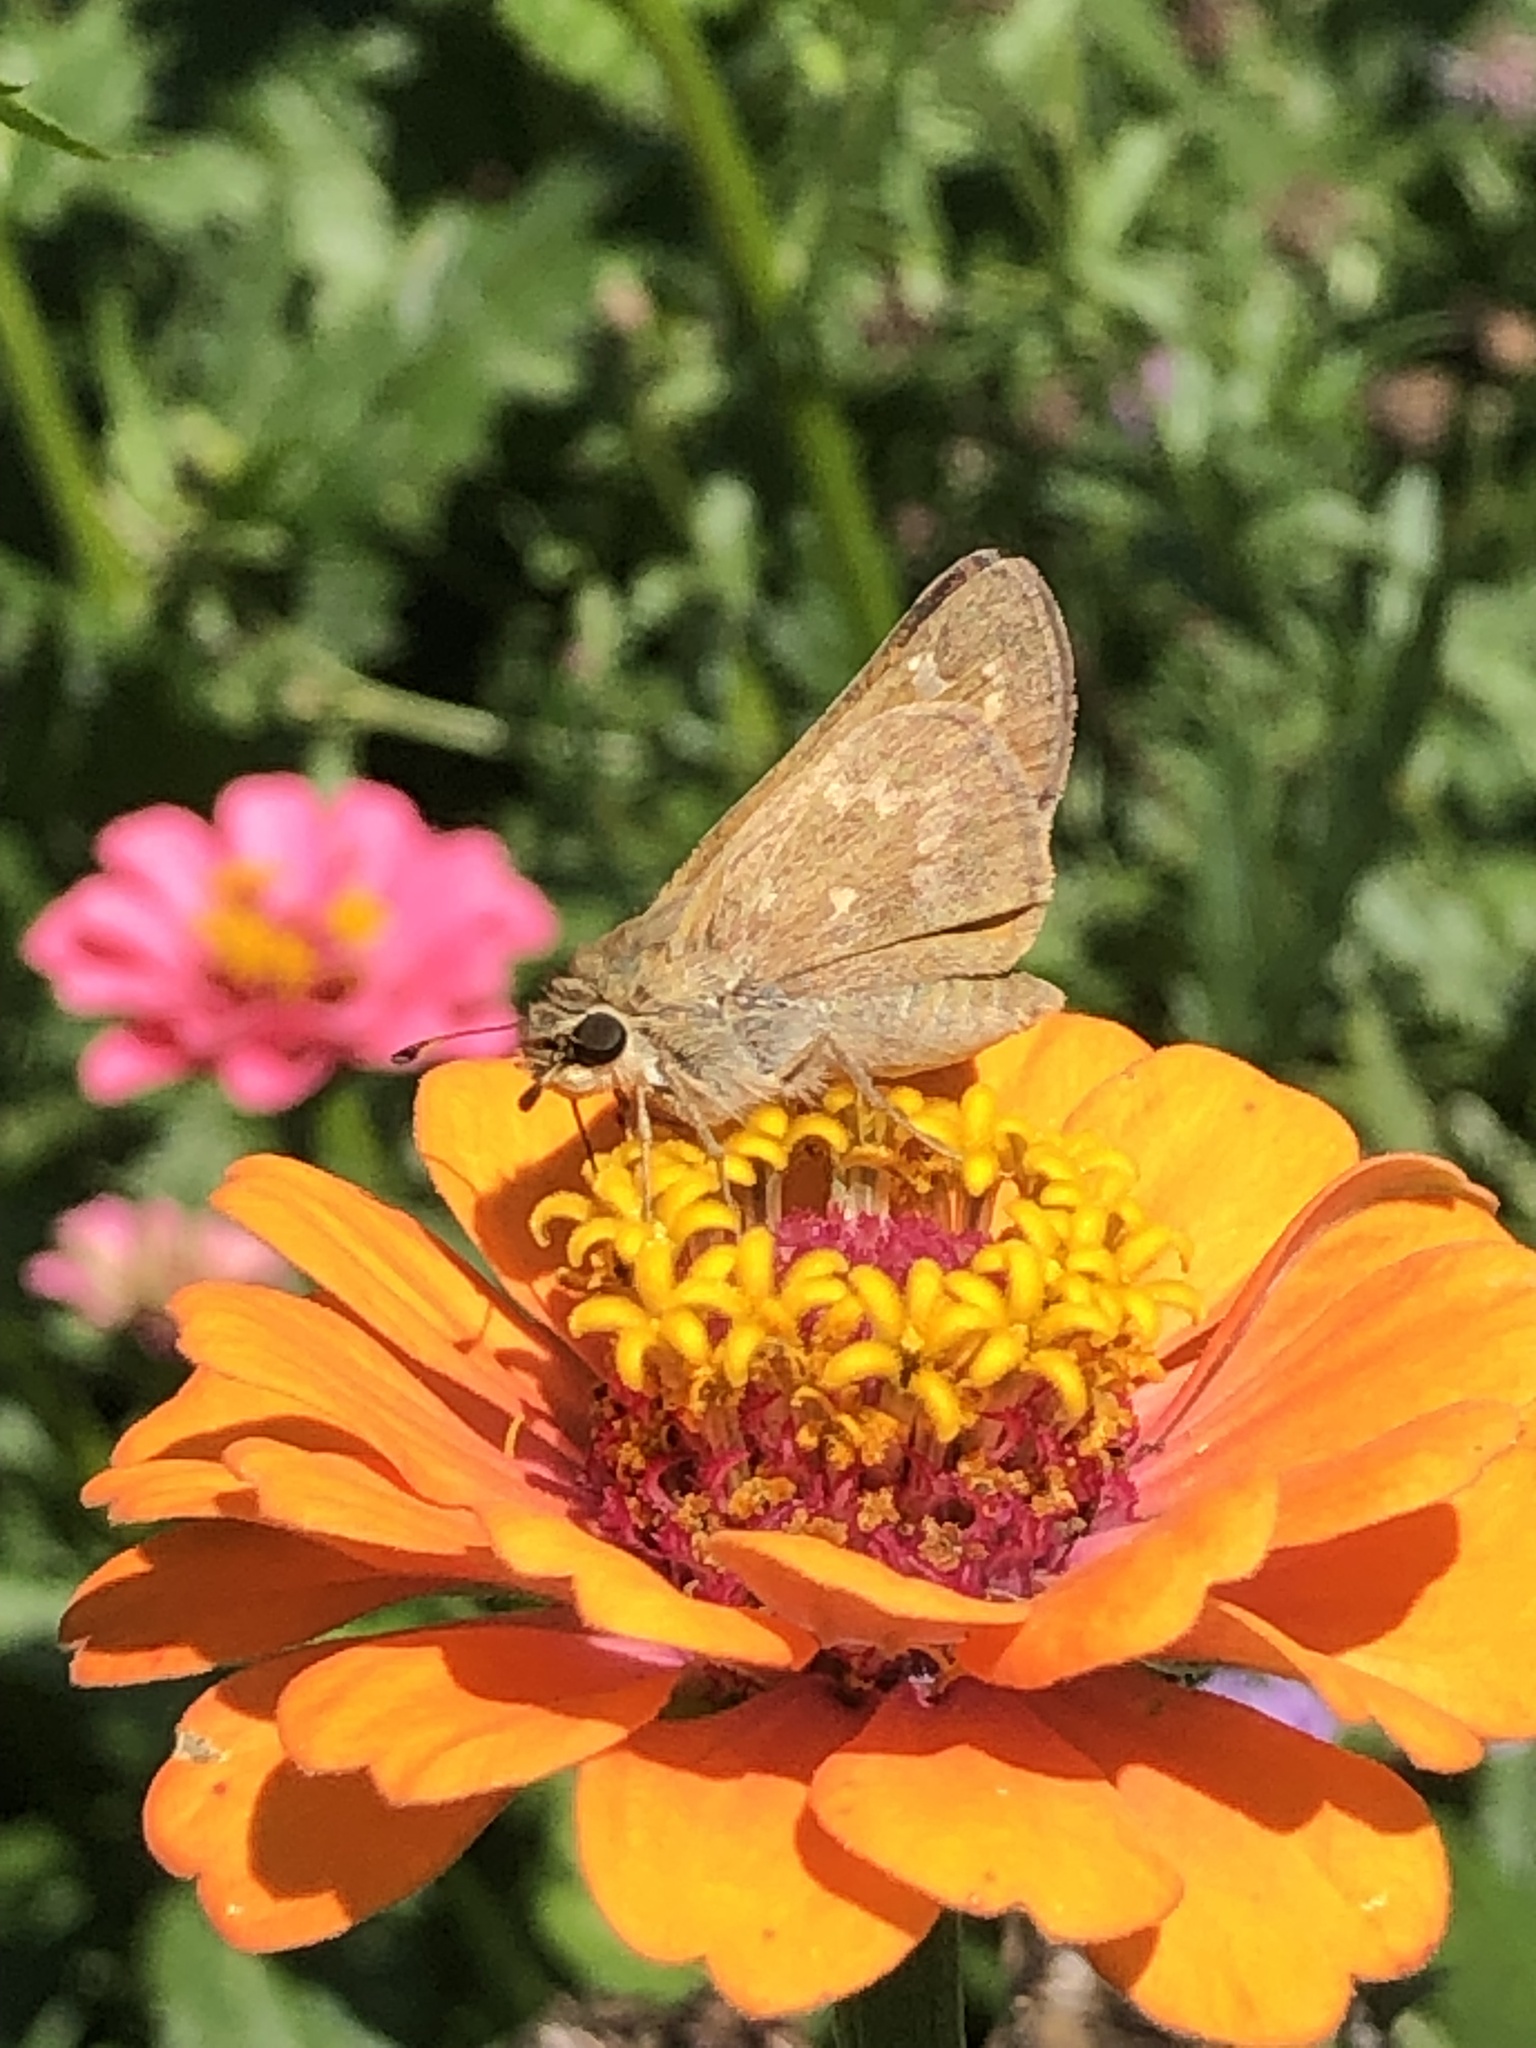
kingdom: Animalia
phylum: Arthropoda
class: Insecta
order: Lepidoptera
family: Hesperiidae
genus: Atalopedes
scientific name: Atalopedes
